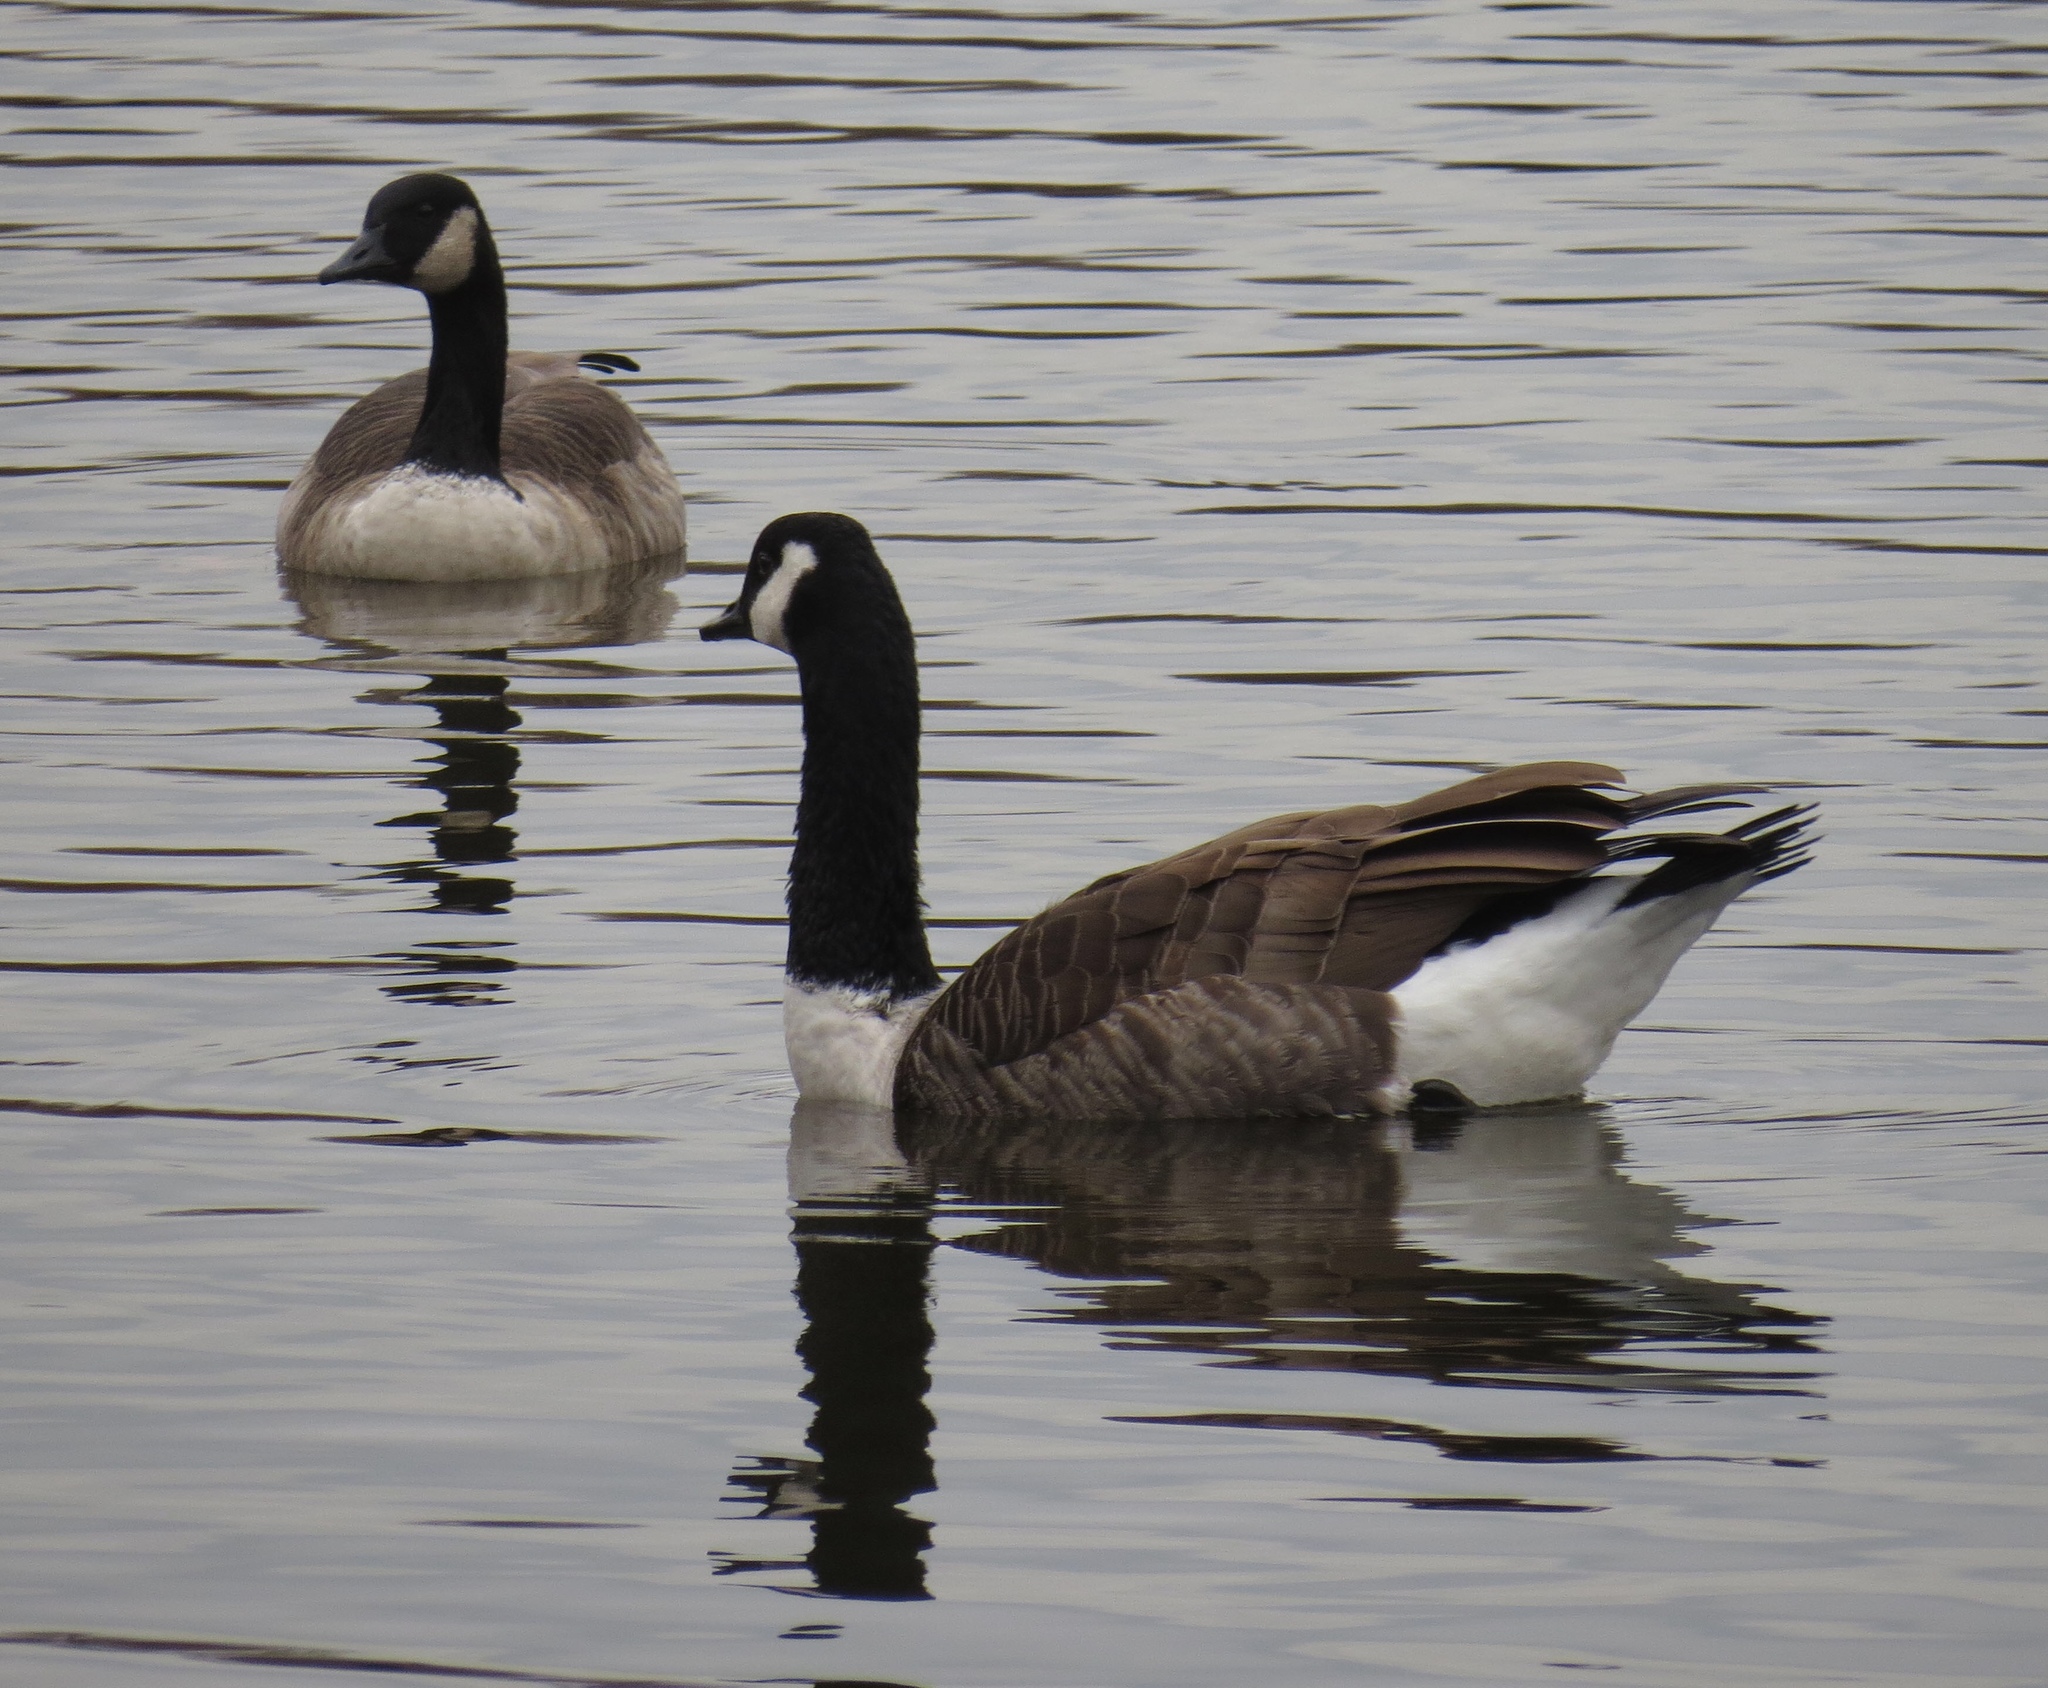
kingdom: Animalia
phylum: Chordata
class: Aves
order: Anseriformes
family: Anatidae
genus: Branta
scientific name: Branta canadensis
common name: Canada goose
